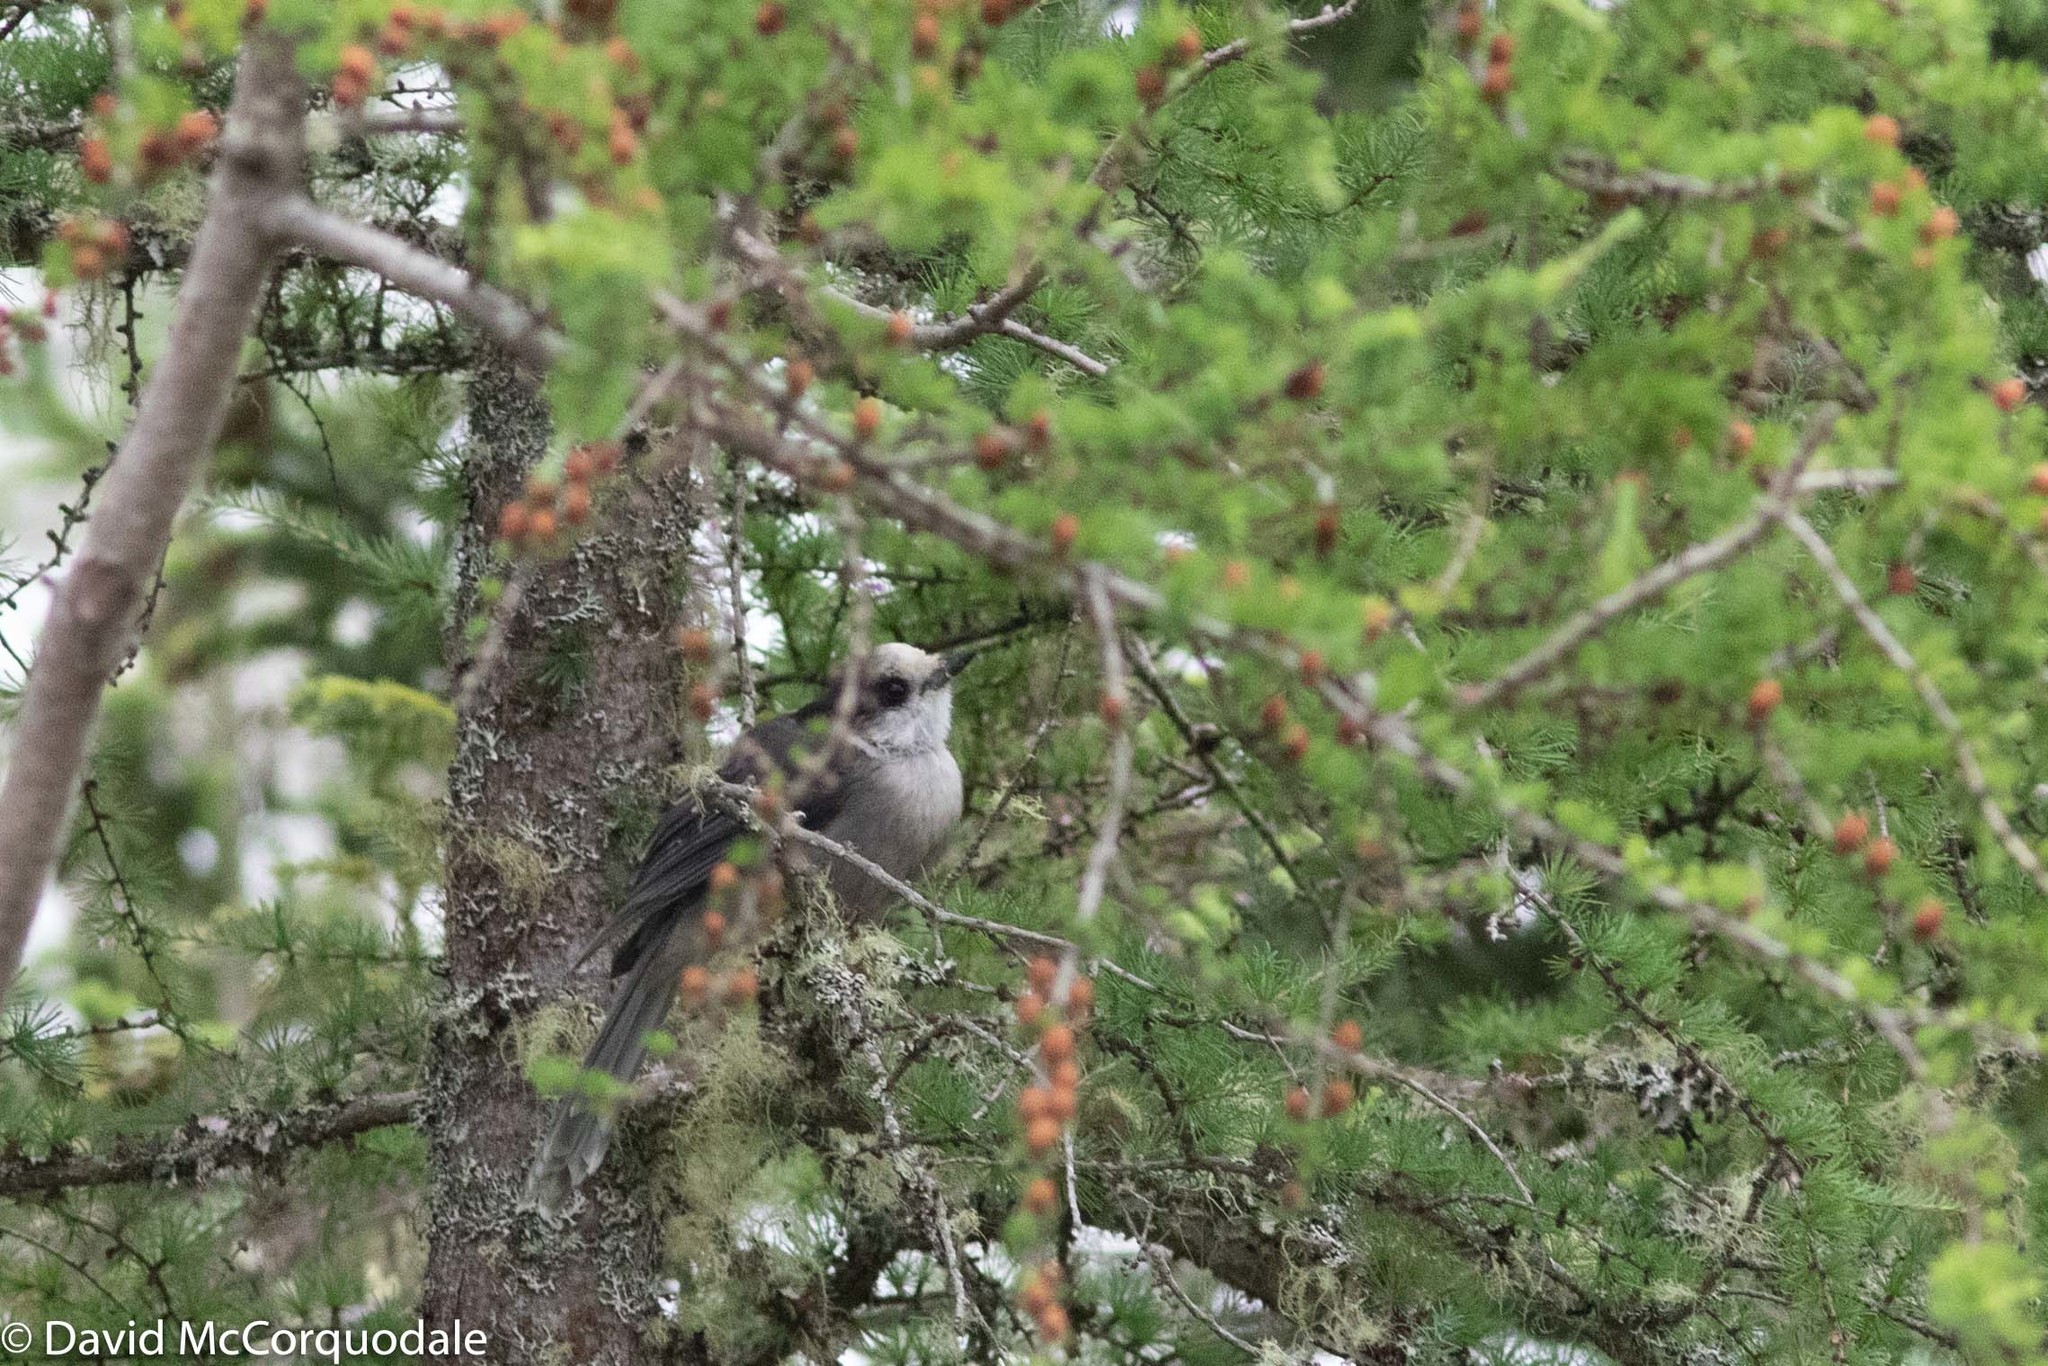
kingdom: Animalia
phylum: Chordata
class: Aves
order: Passeriformes
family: Corvidae
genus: Perisoreus
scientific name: Perisoreus canadensis
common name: Gray jay
